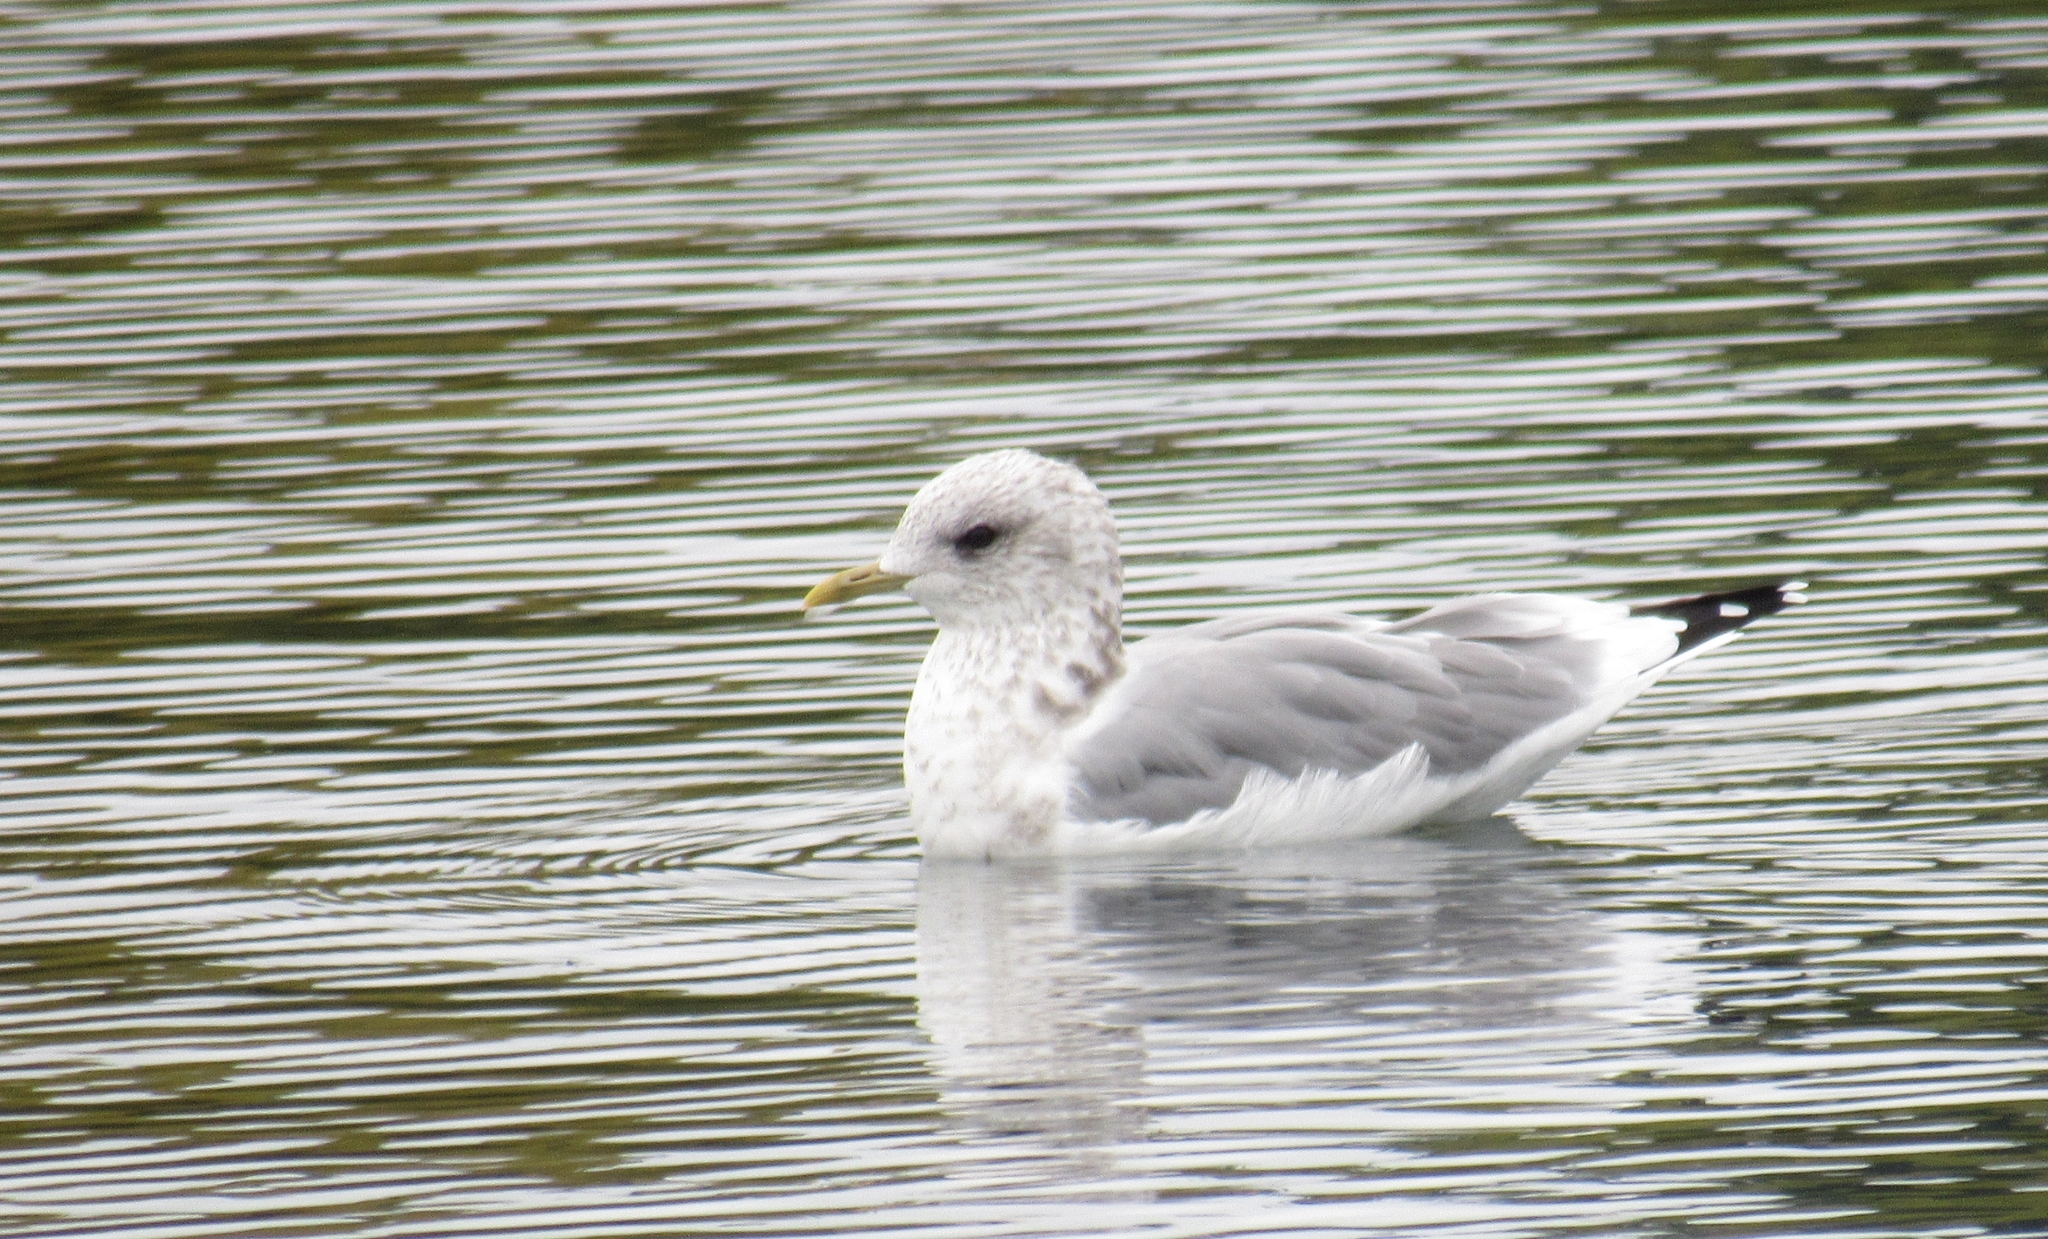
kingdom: Animalia
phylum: Chordata
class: Aves
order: Charadriiformes
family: Laridae
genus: Larus
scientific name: Larus brachyrhynchus
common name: Short-billed gull
